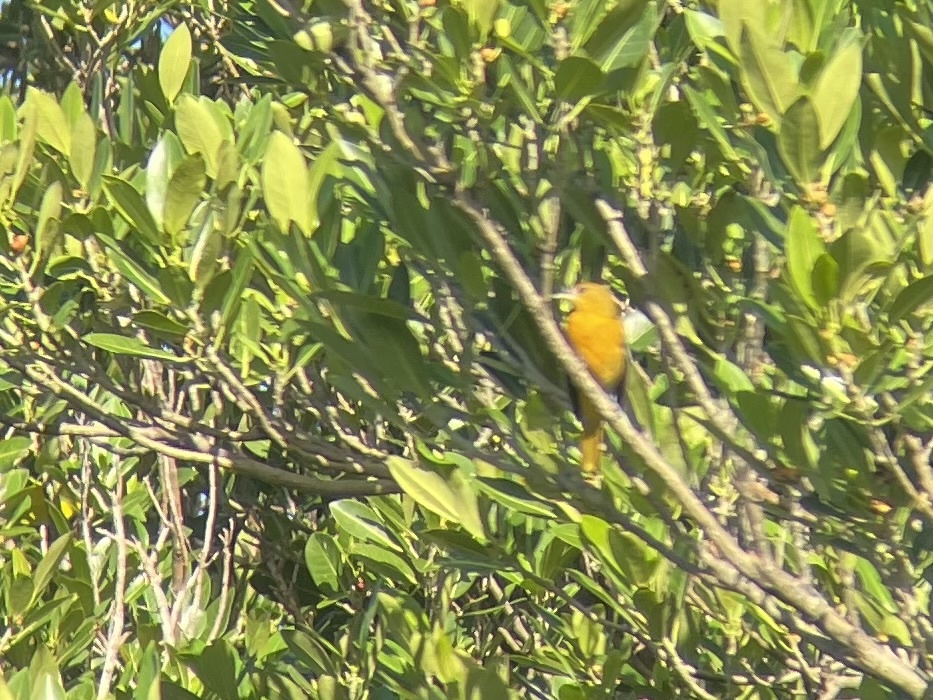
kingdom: Animalia
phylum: Chordata
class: Aves
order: Passeriformes
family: Icteridae
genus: Icterus
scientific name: Icterus galbula
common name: Baltimore oriole
